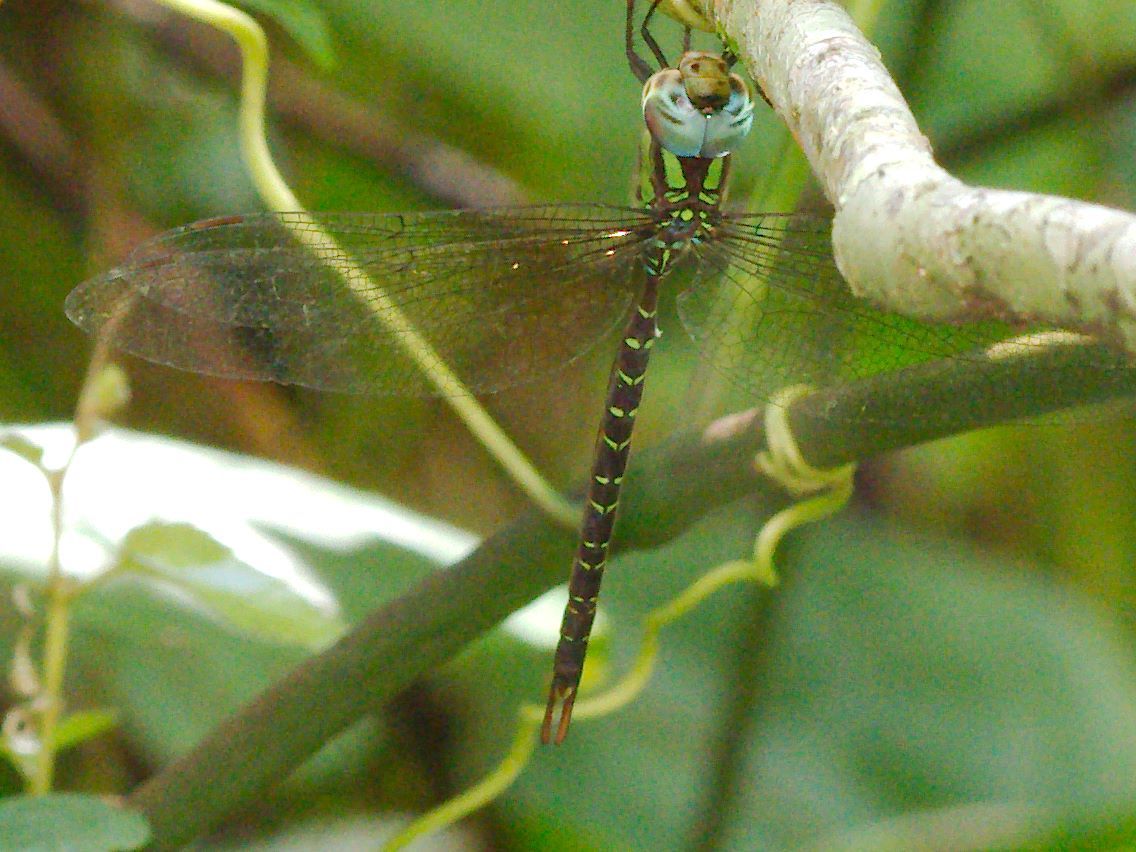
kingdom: Animalia
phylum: Arthropoda
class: Insecta
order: Odonata
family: Aeshnidae
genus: Triacanthagyna
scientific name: Triacanthagyna trifida
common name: Phantom darner
